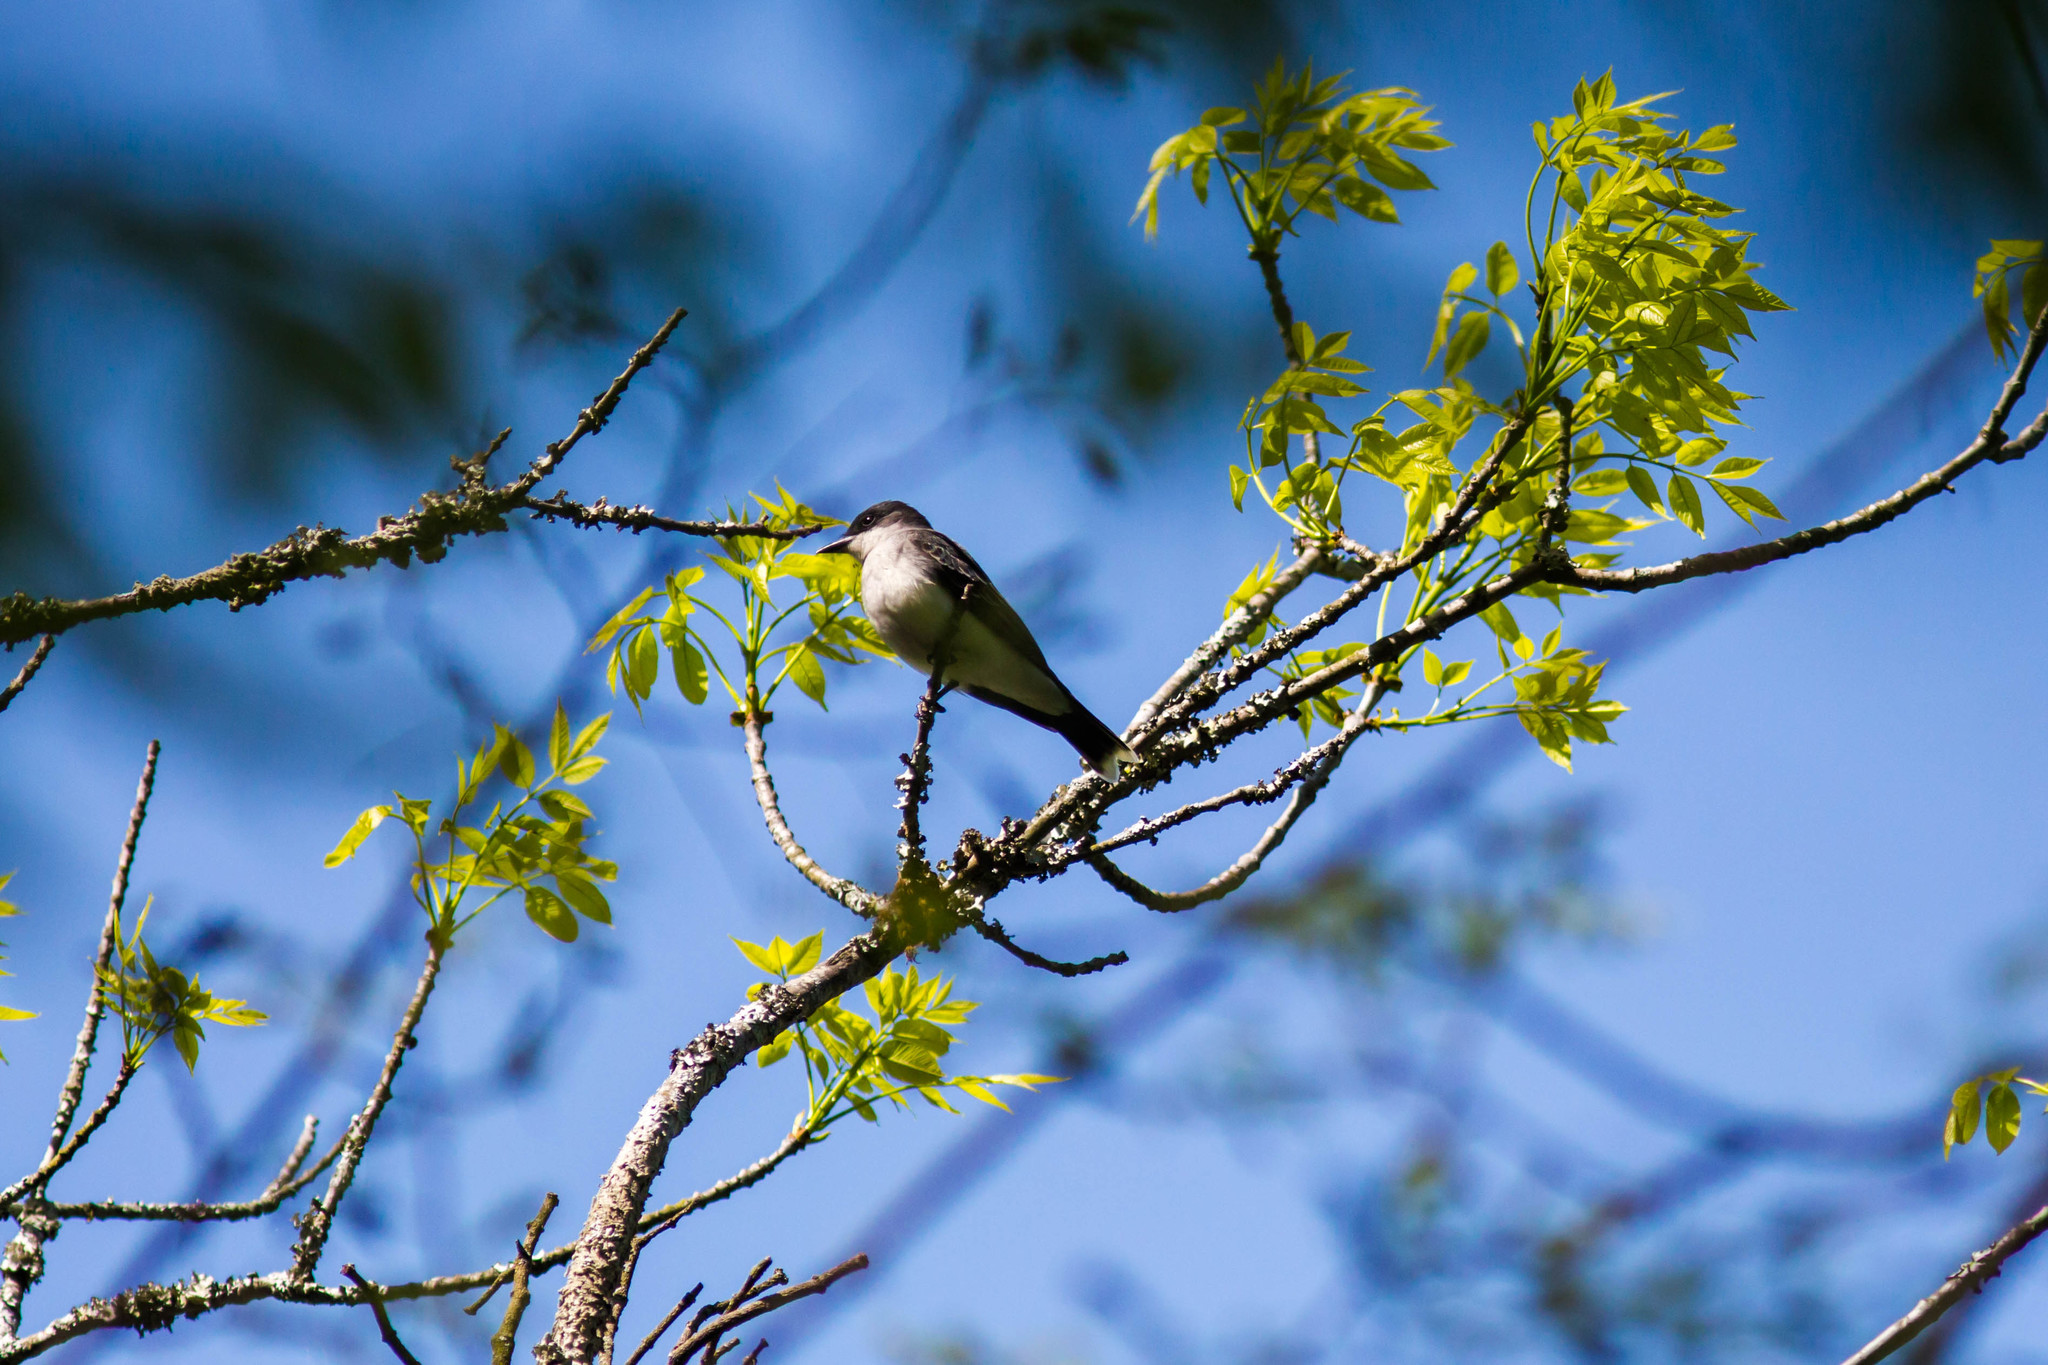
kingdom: Animalia
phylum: Chordata
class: Aves
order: Passeriformes
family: Tyrannidae
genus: Tyrannus
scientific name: Tyrannus tyrannus
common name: Eastern kingbird
